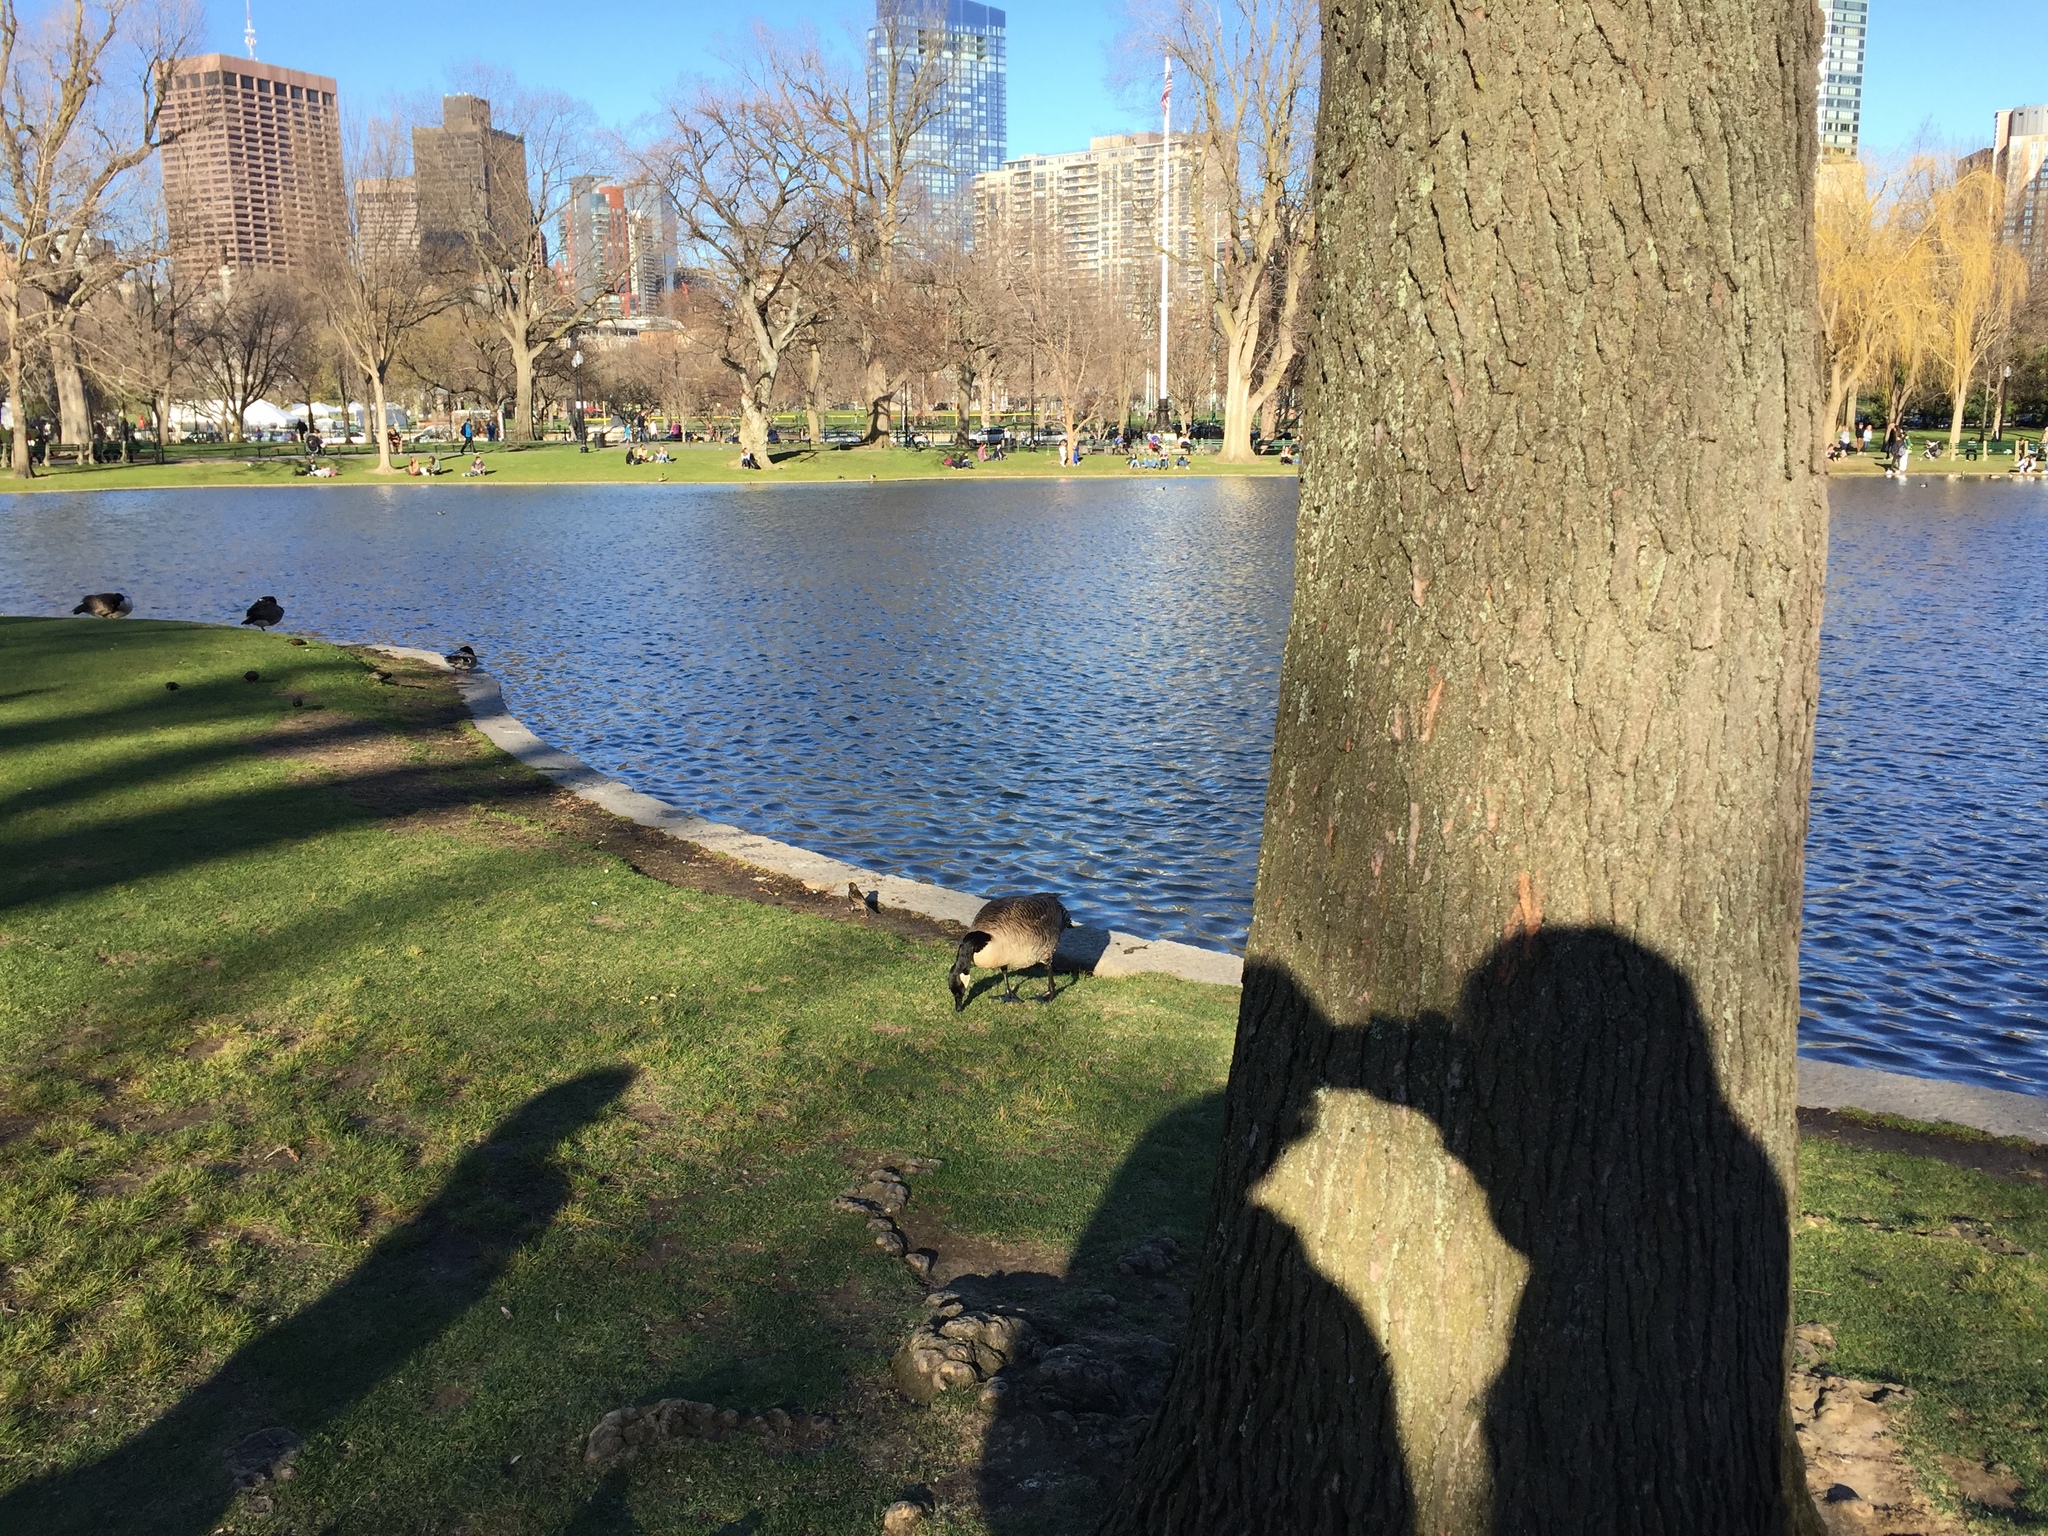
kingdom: Animalia
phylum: Chordata
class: Aves
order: Anseriformes
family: Anatidae
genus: Branta
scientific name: Branta canadensis
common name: Canada goose
